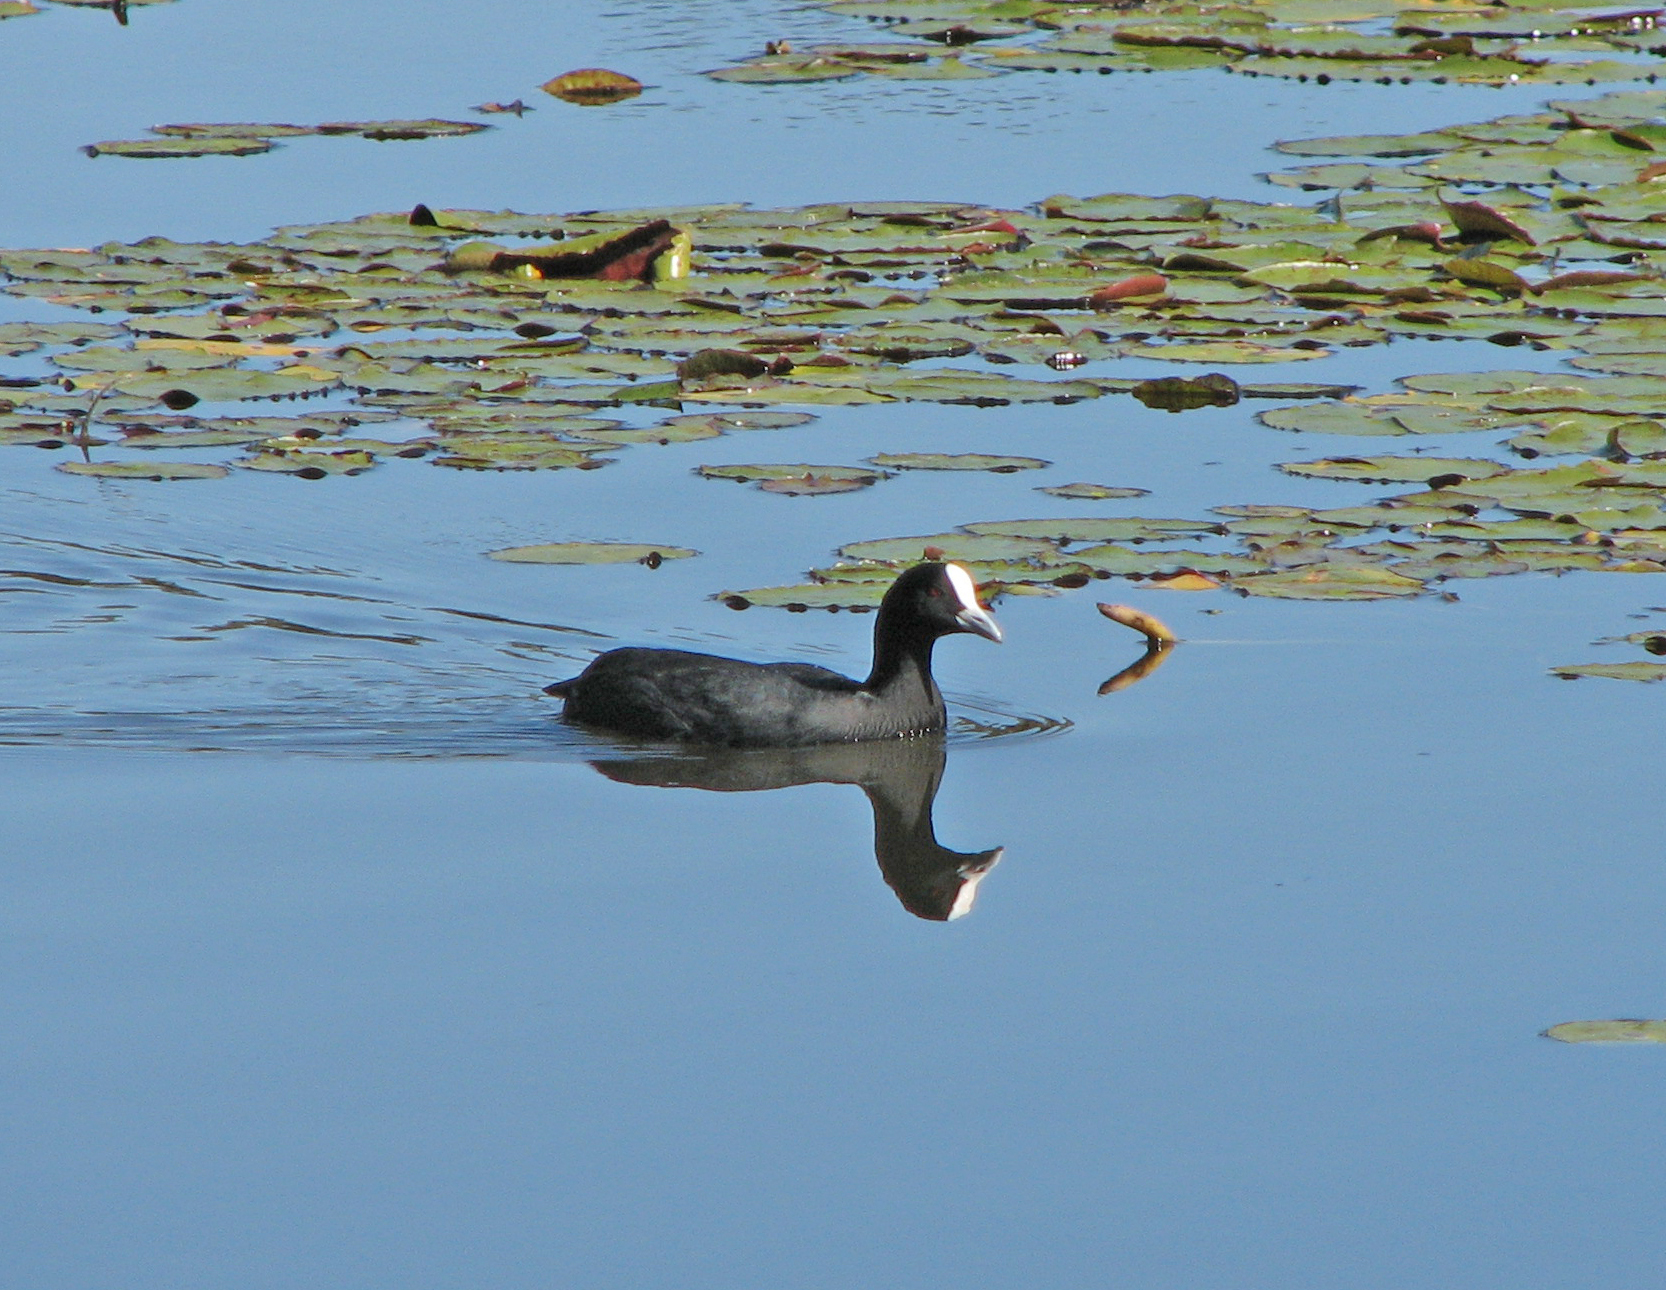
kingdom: Animalia
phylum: Chordata
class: Aves
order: Gruiformes
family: Rallidae
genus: Fulica
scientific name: Fulica atra
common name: Eurasian coot
